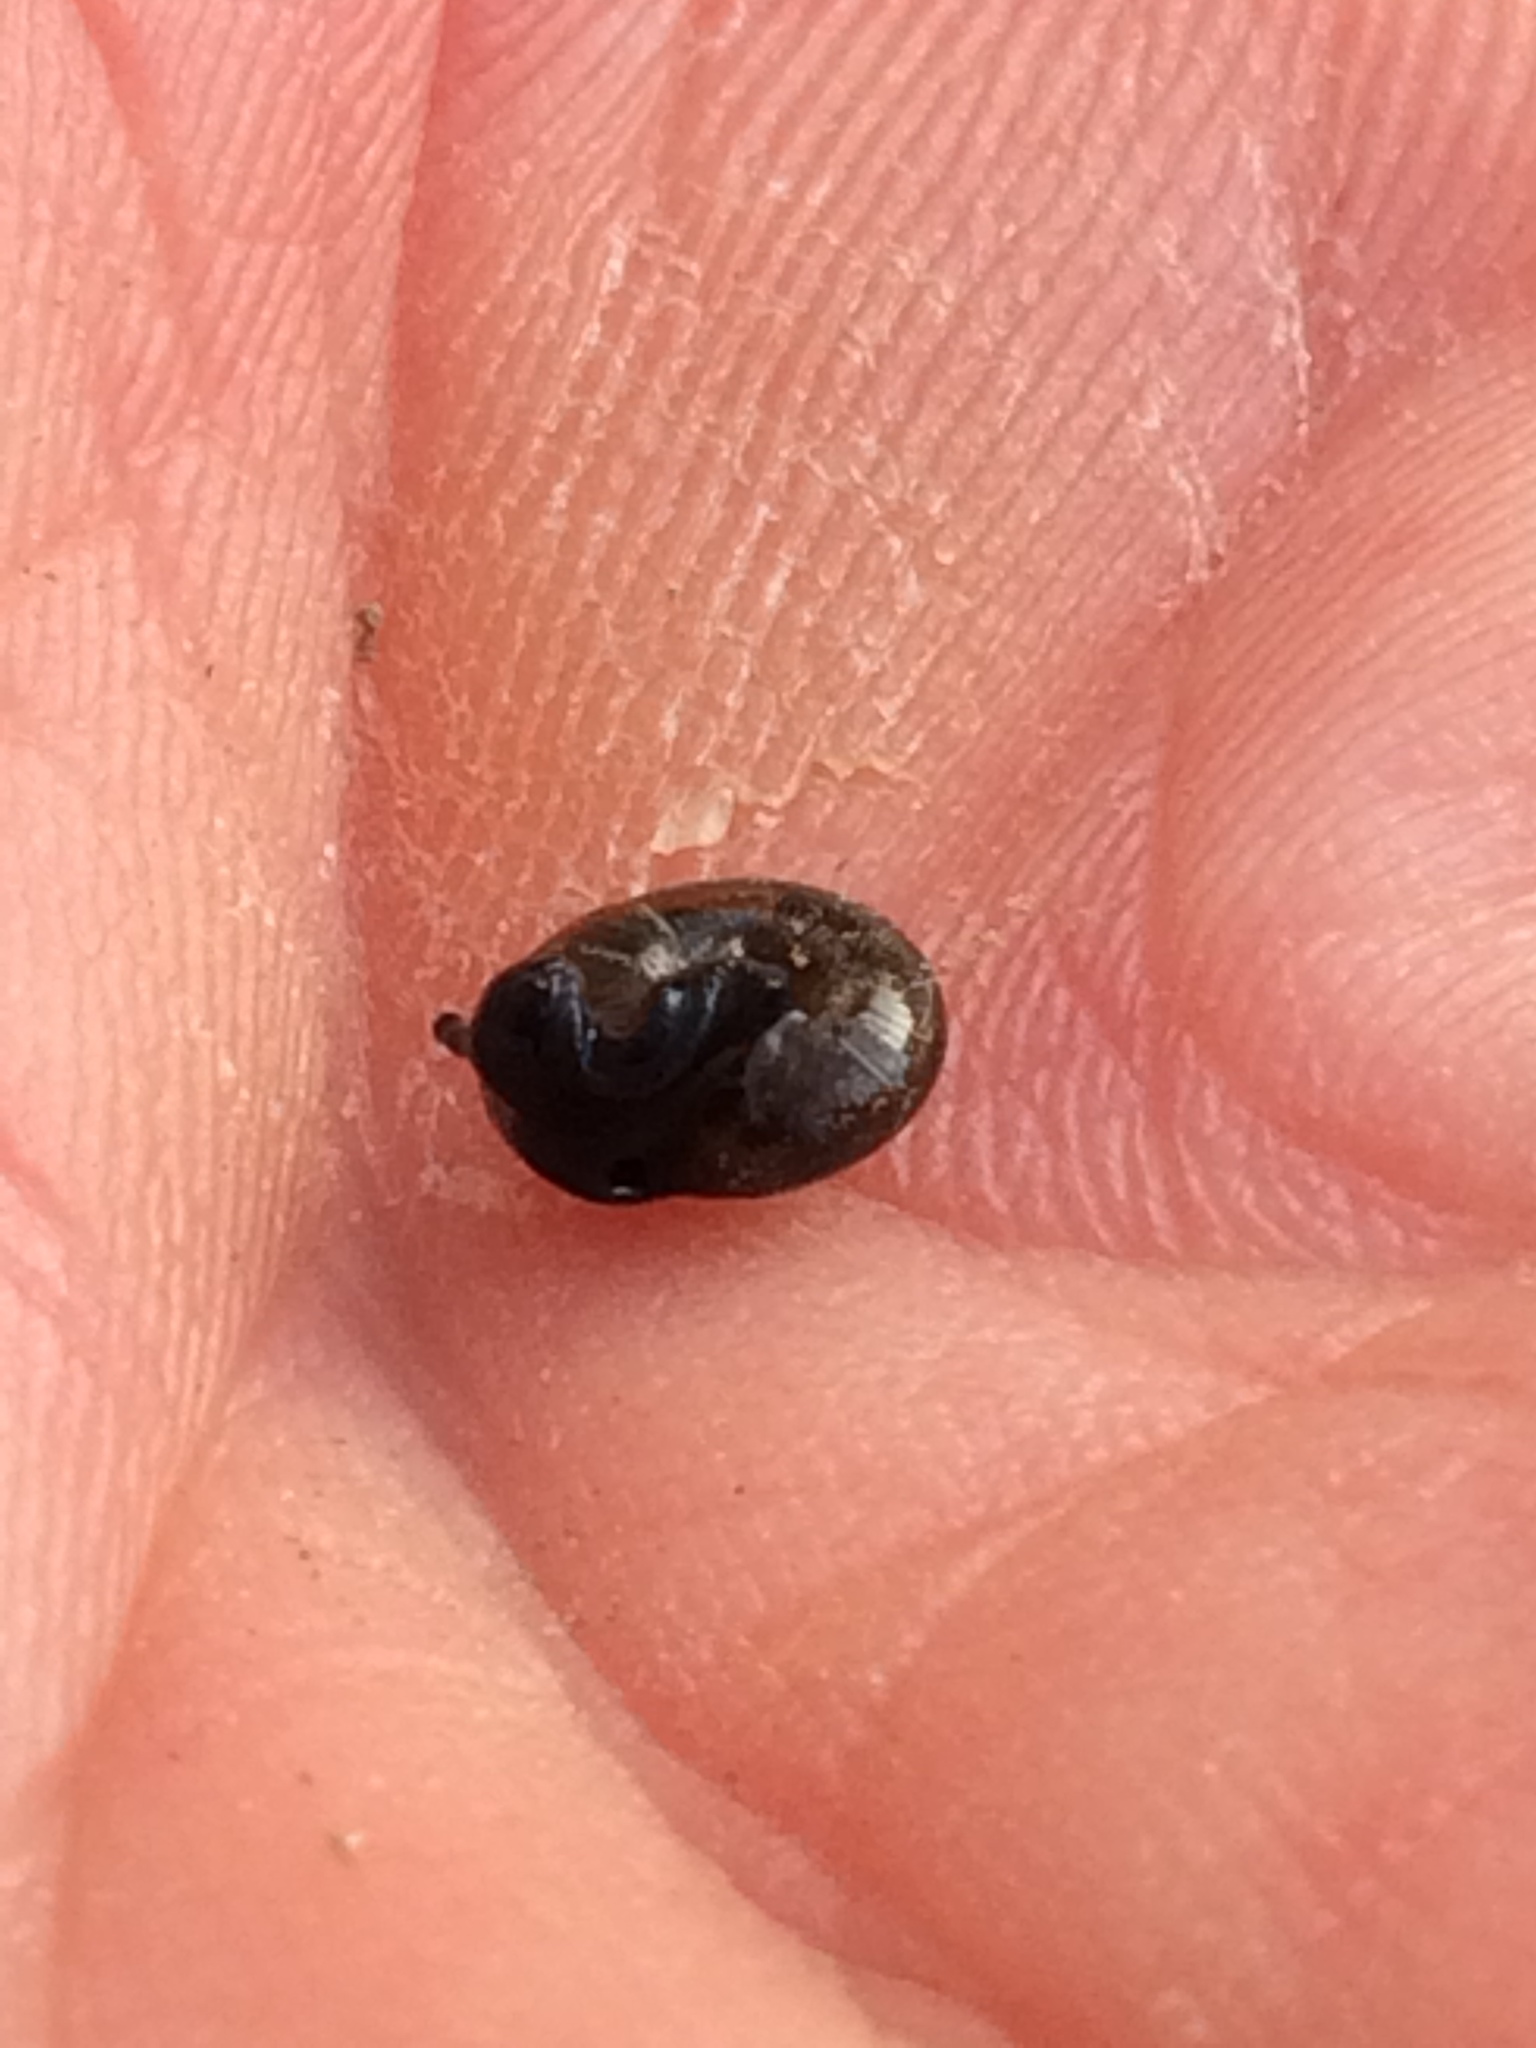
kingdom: Animalia
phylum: Mollusca
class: Gastropoda
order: Stylommatophora
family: Gastrodontidae
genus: Zonitoides
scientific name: Zonitoides nitidus
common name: Shiny glass snail
